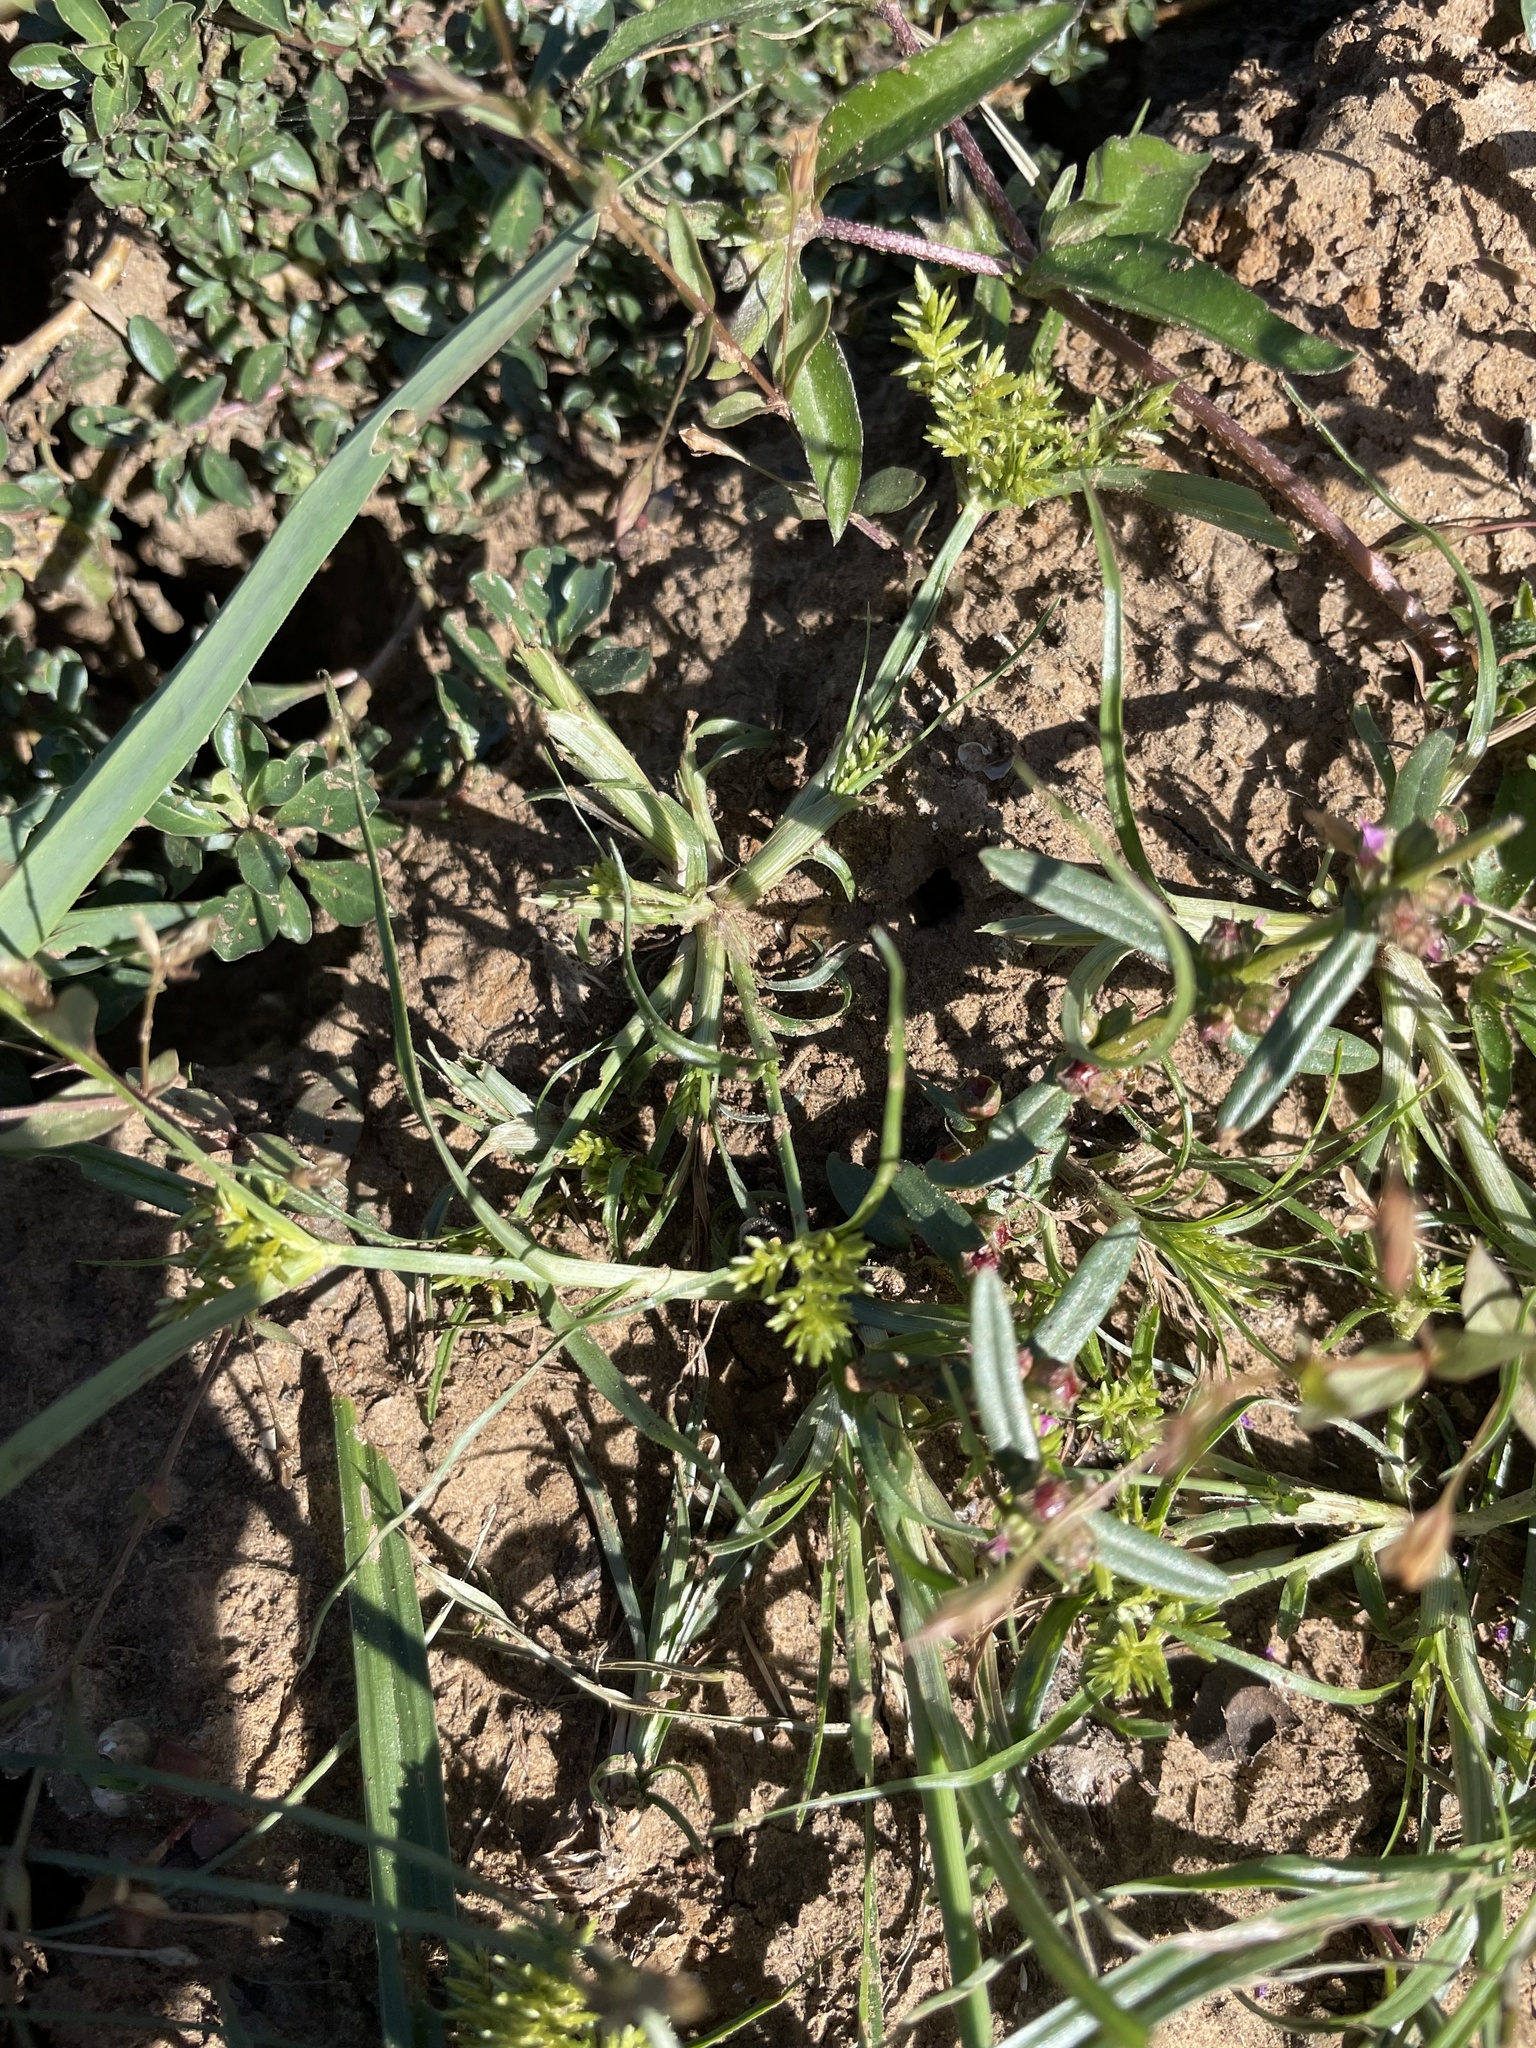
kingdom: Animalia
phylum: Arthropoda
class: Insecta
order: Hymenoptera
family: Mutillidae
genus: Dasymutilla
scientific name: Dasymutilla
